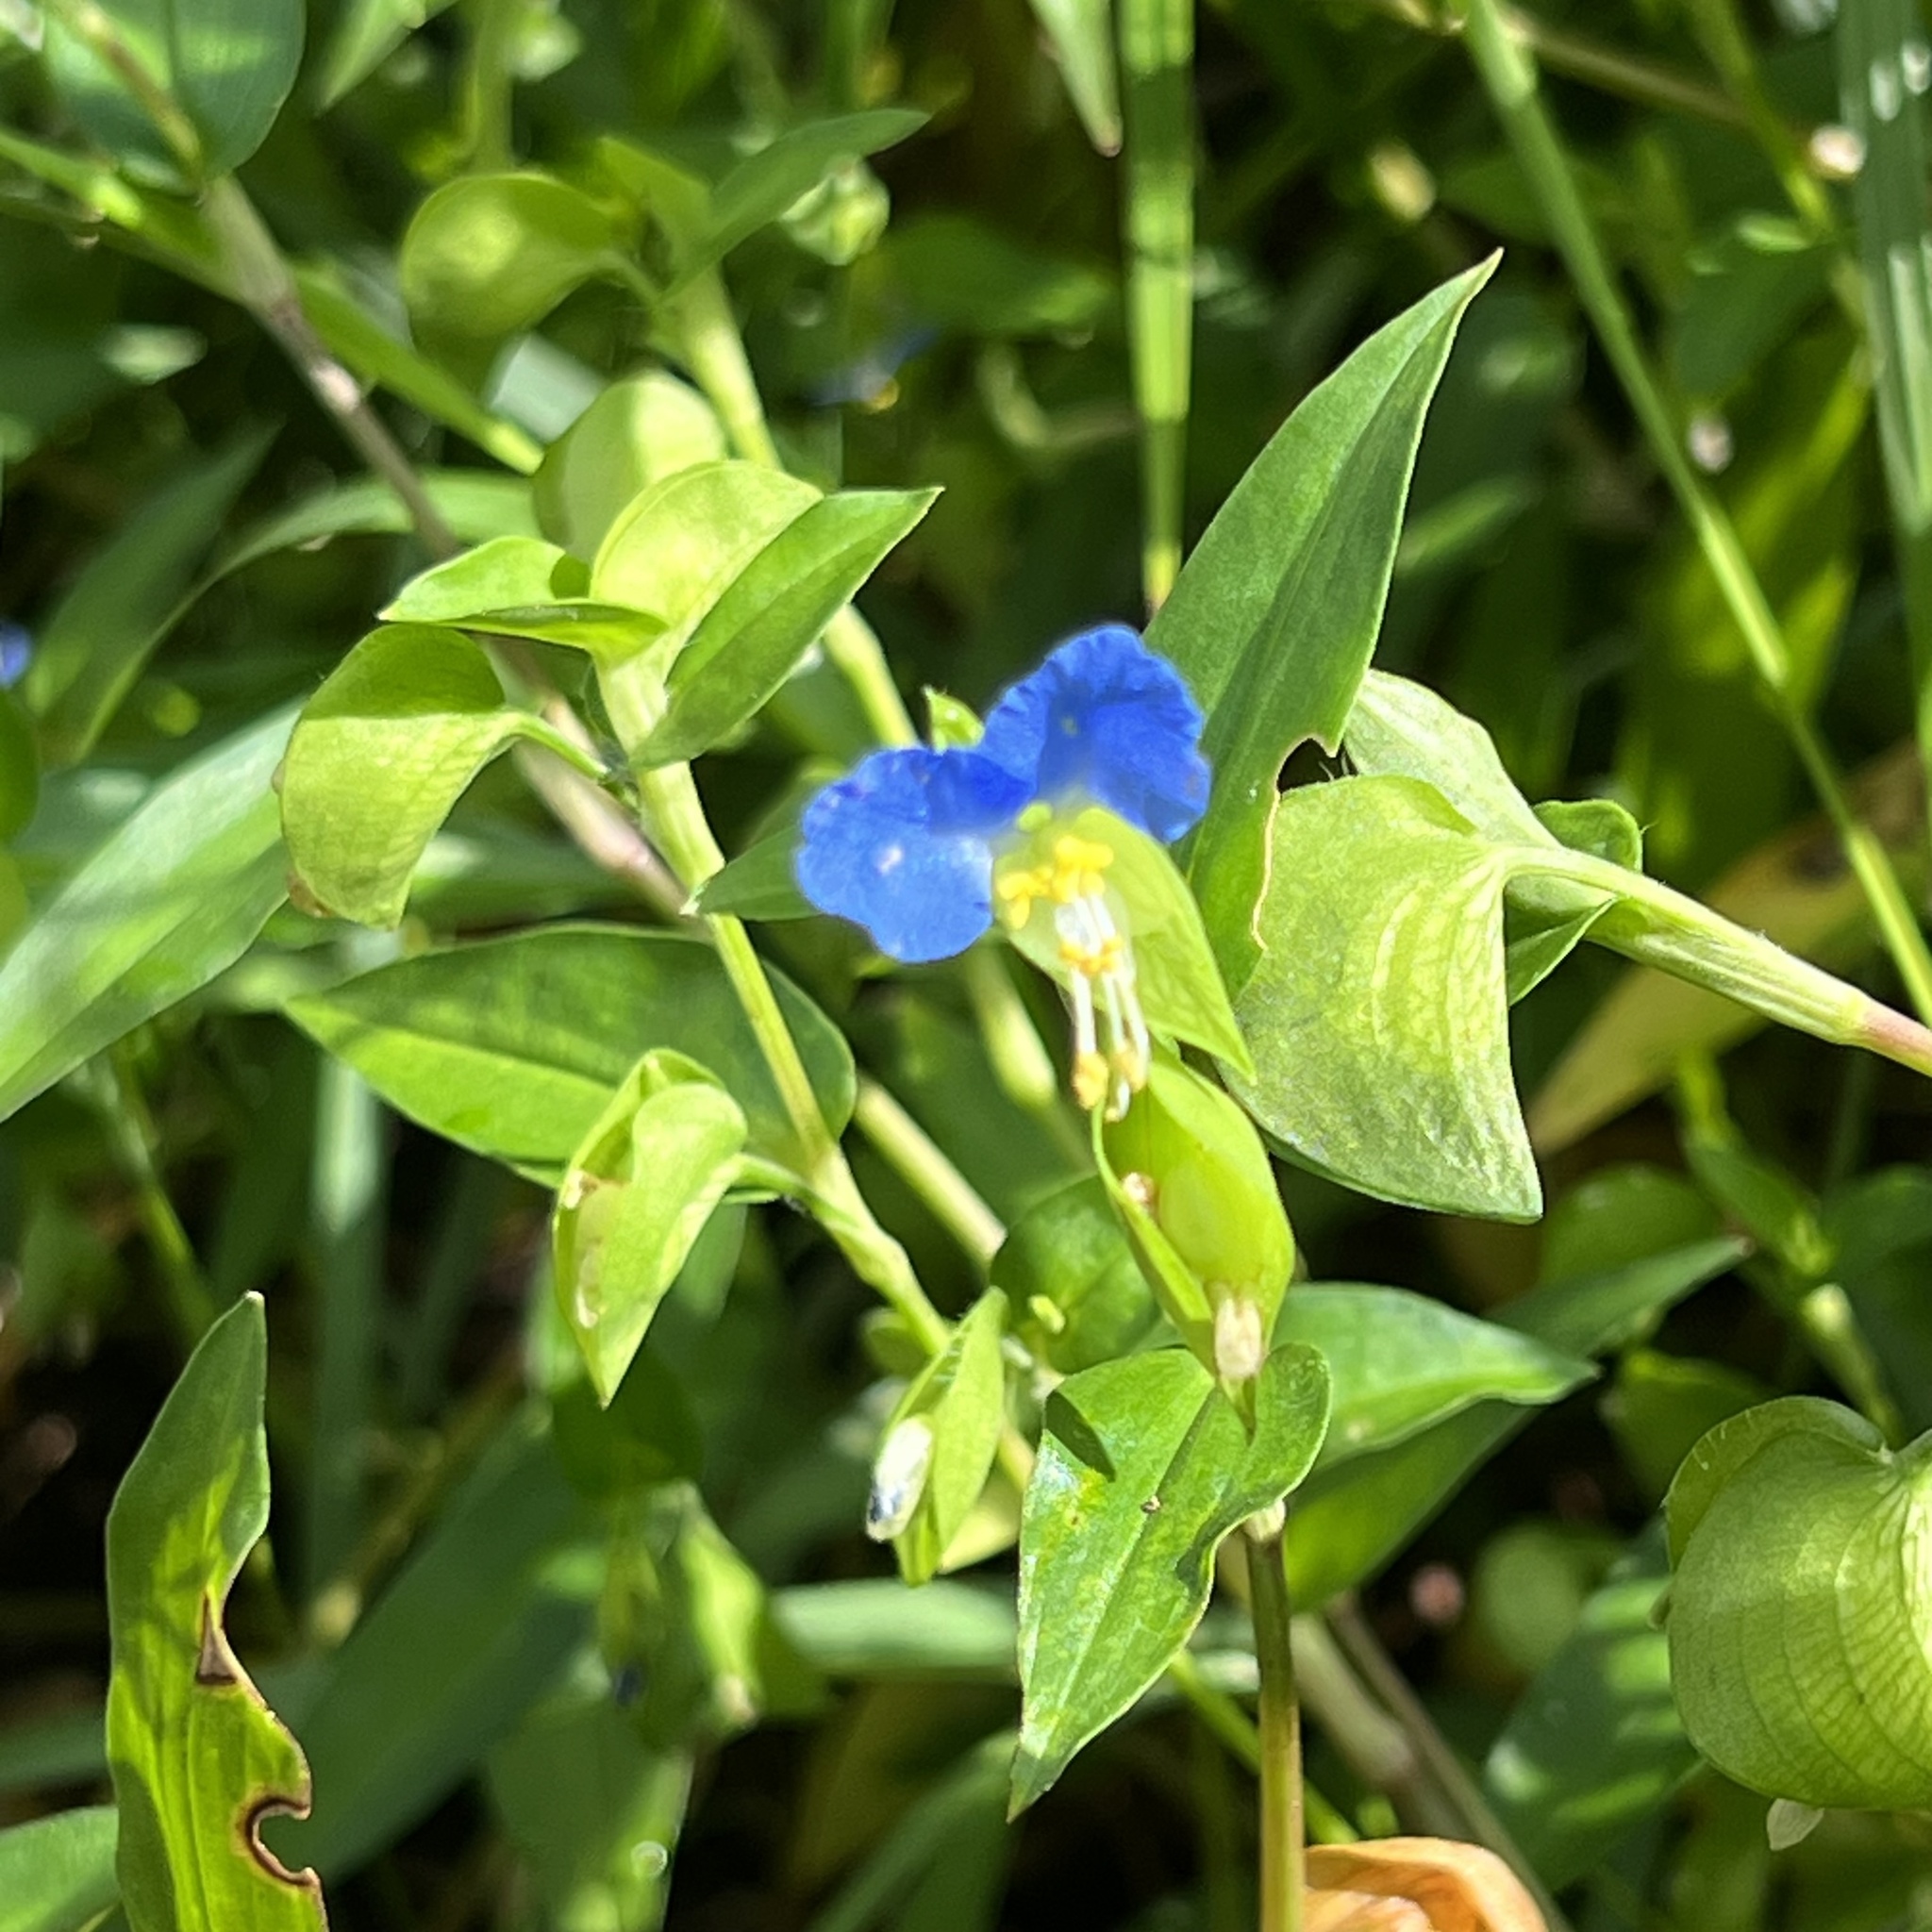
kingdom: Plantae
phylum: Tracheophyta
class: Liliopsida
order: Commelinales
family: Commelinaceae
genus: Commelina
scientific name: Commelina communis
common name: Asiatic dayflower
